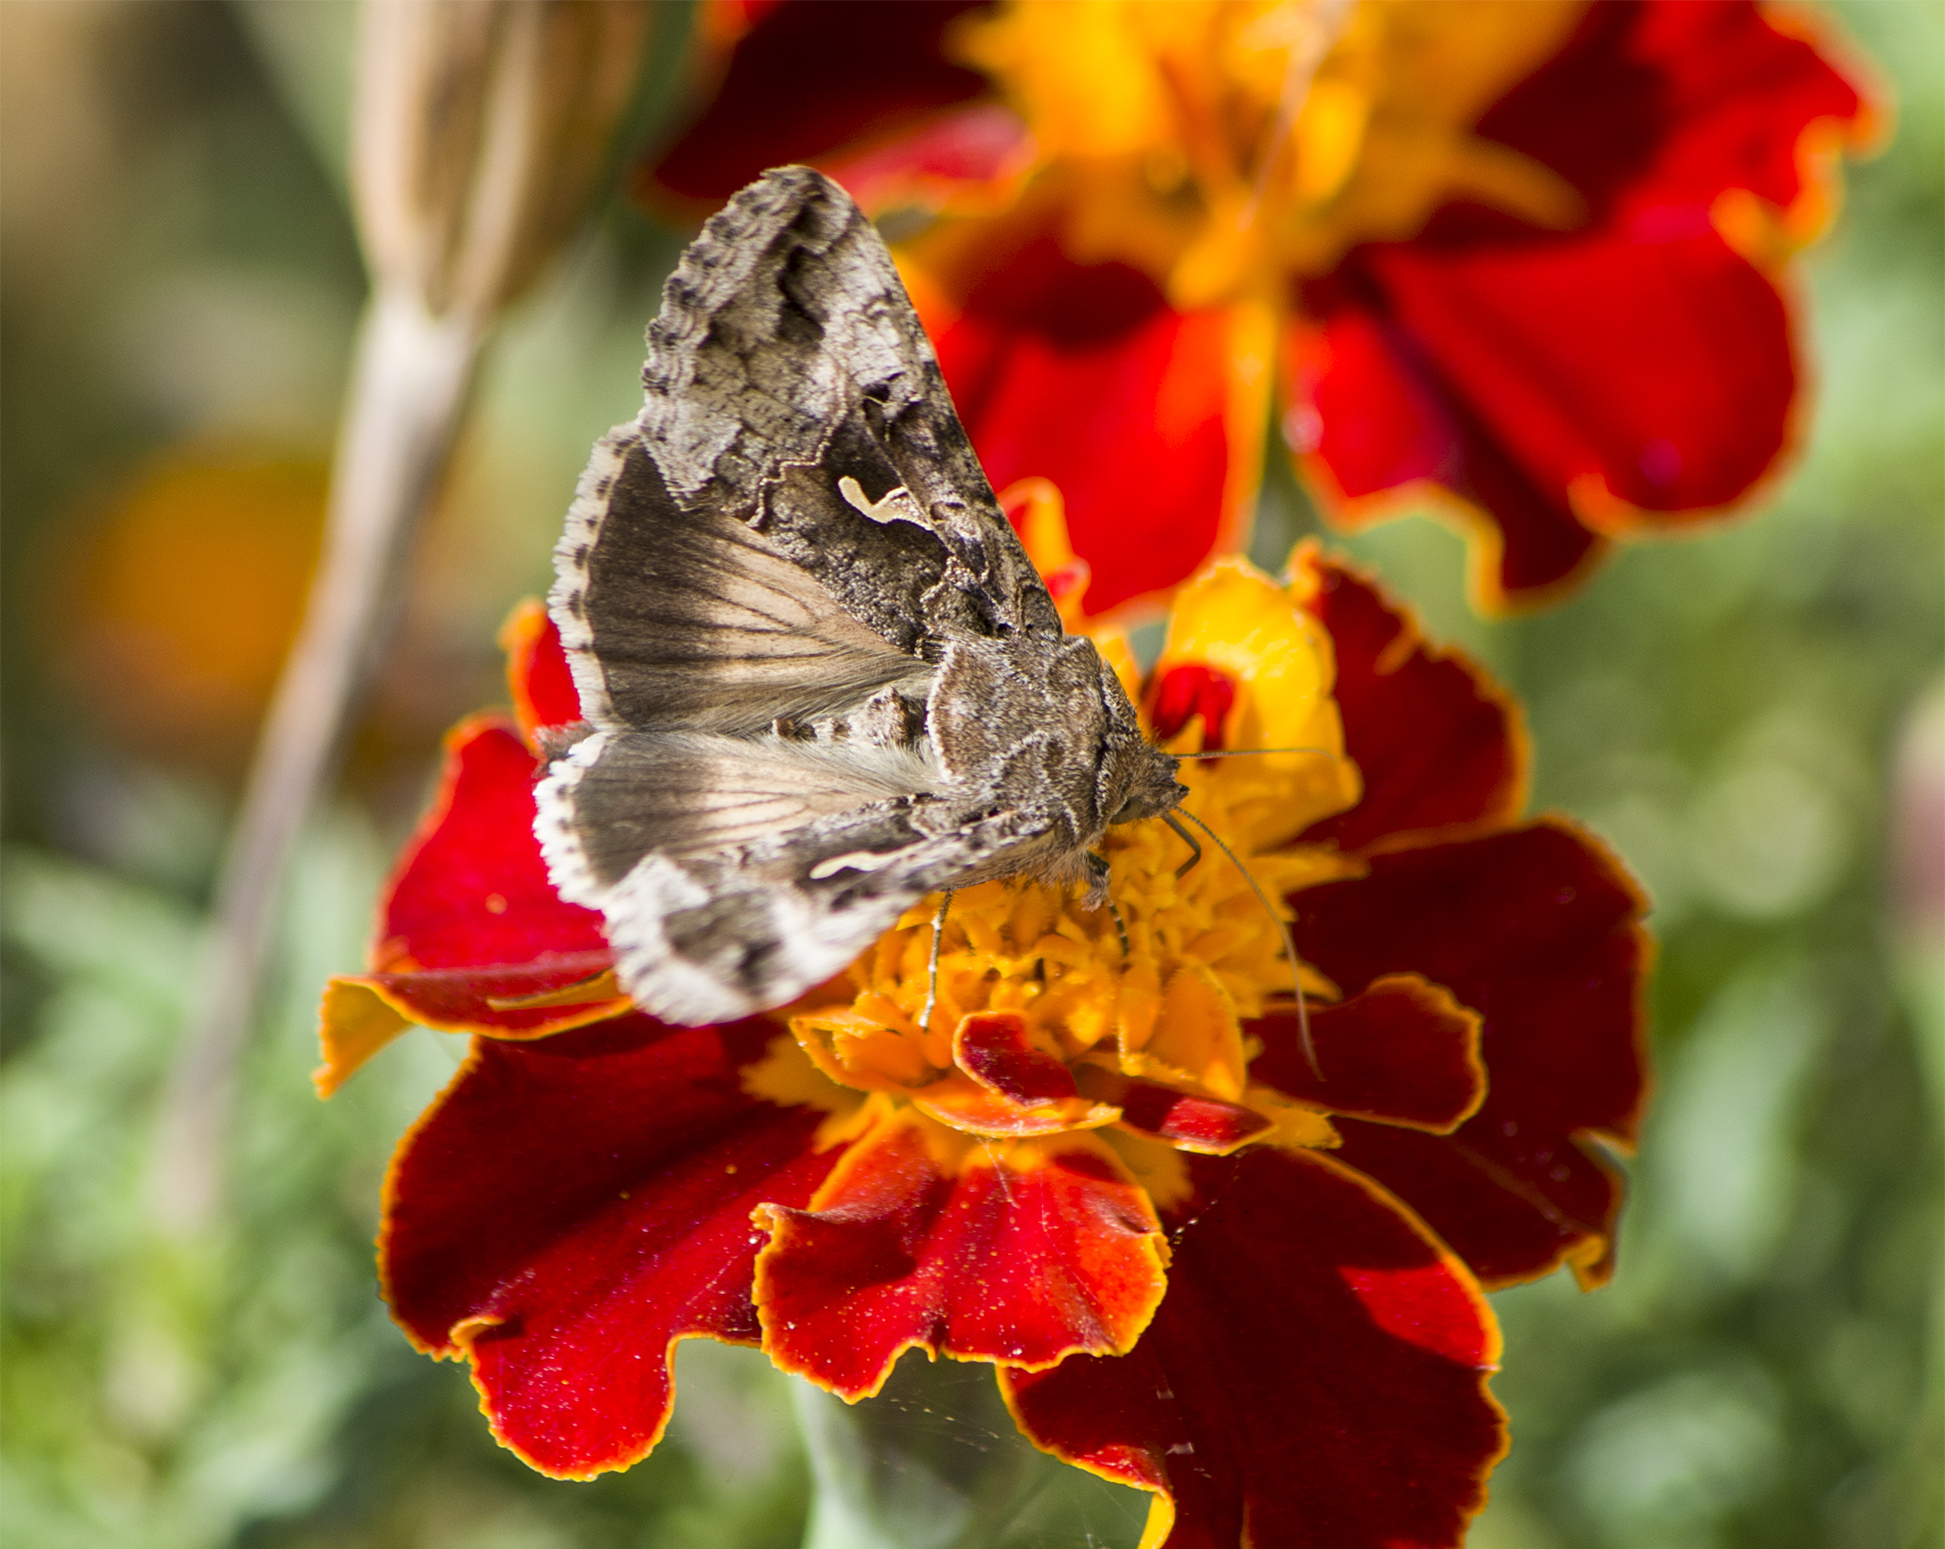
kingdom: Animalia
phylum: Arthropoda
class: Insecta
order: Lepidoptera
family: Noctuidae
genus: Autographa
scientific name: Autographa gamma
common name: Silver y
